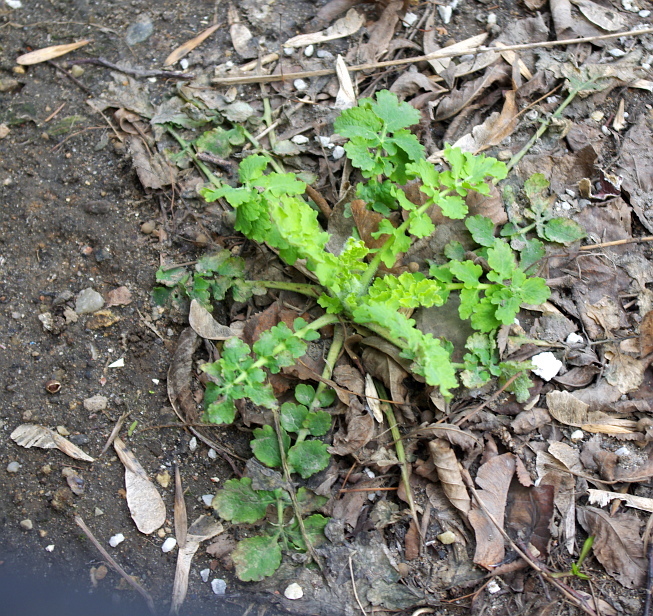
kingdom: Plantae
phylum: Tracheophyta
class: Magnoliopsida
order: Ranunculales
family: Papaveraceae
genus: Chelidonium
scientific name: Chelidonium majus
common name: Greater celandine
